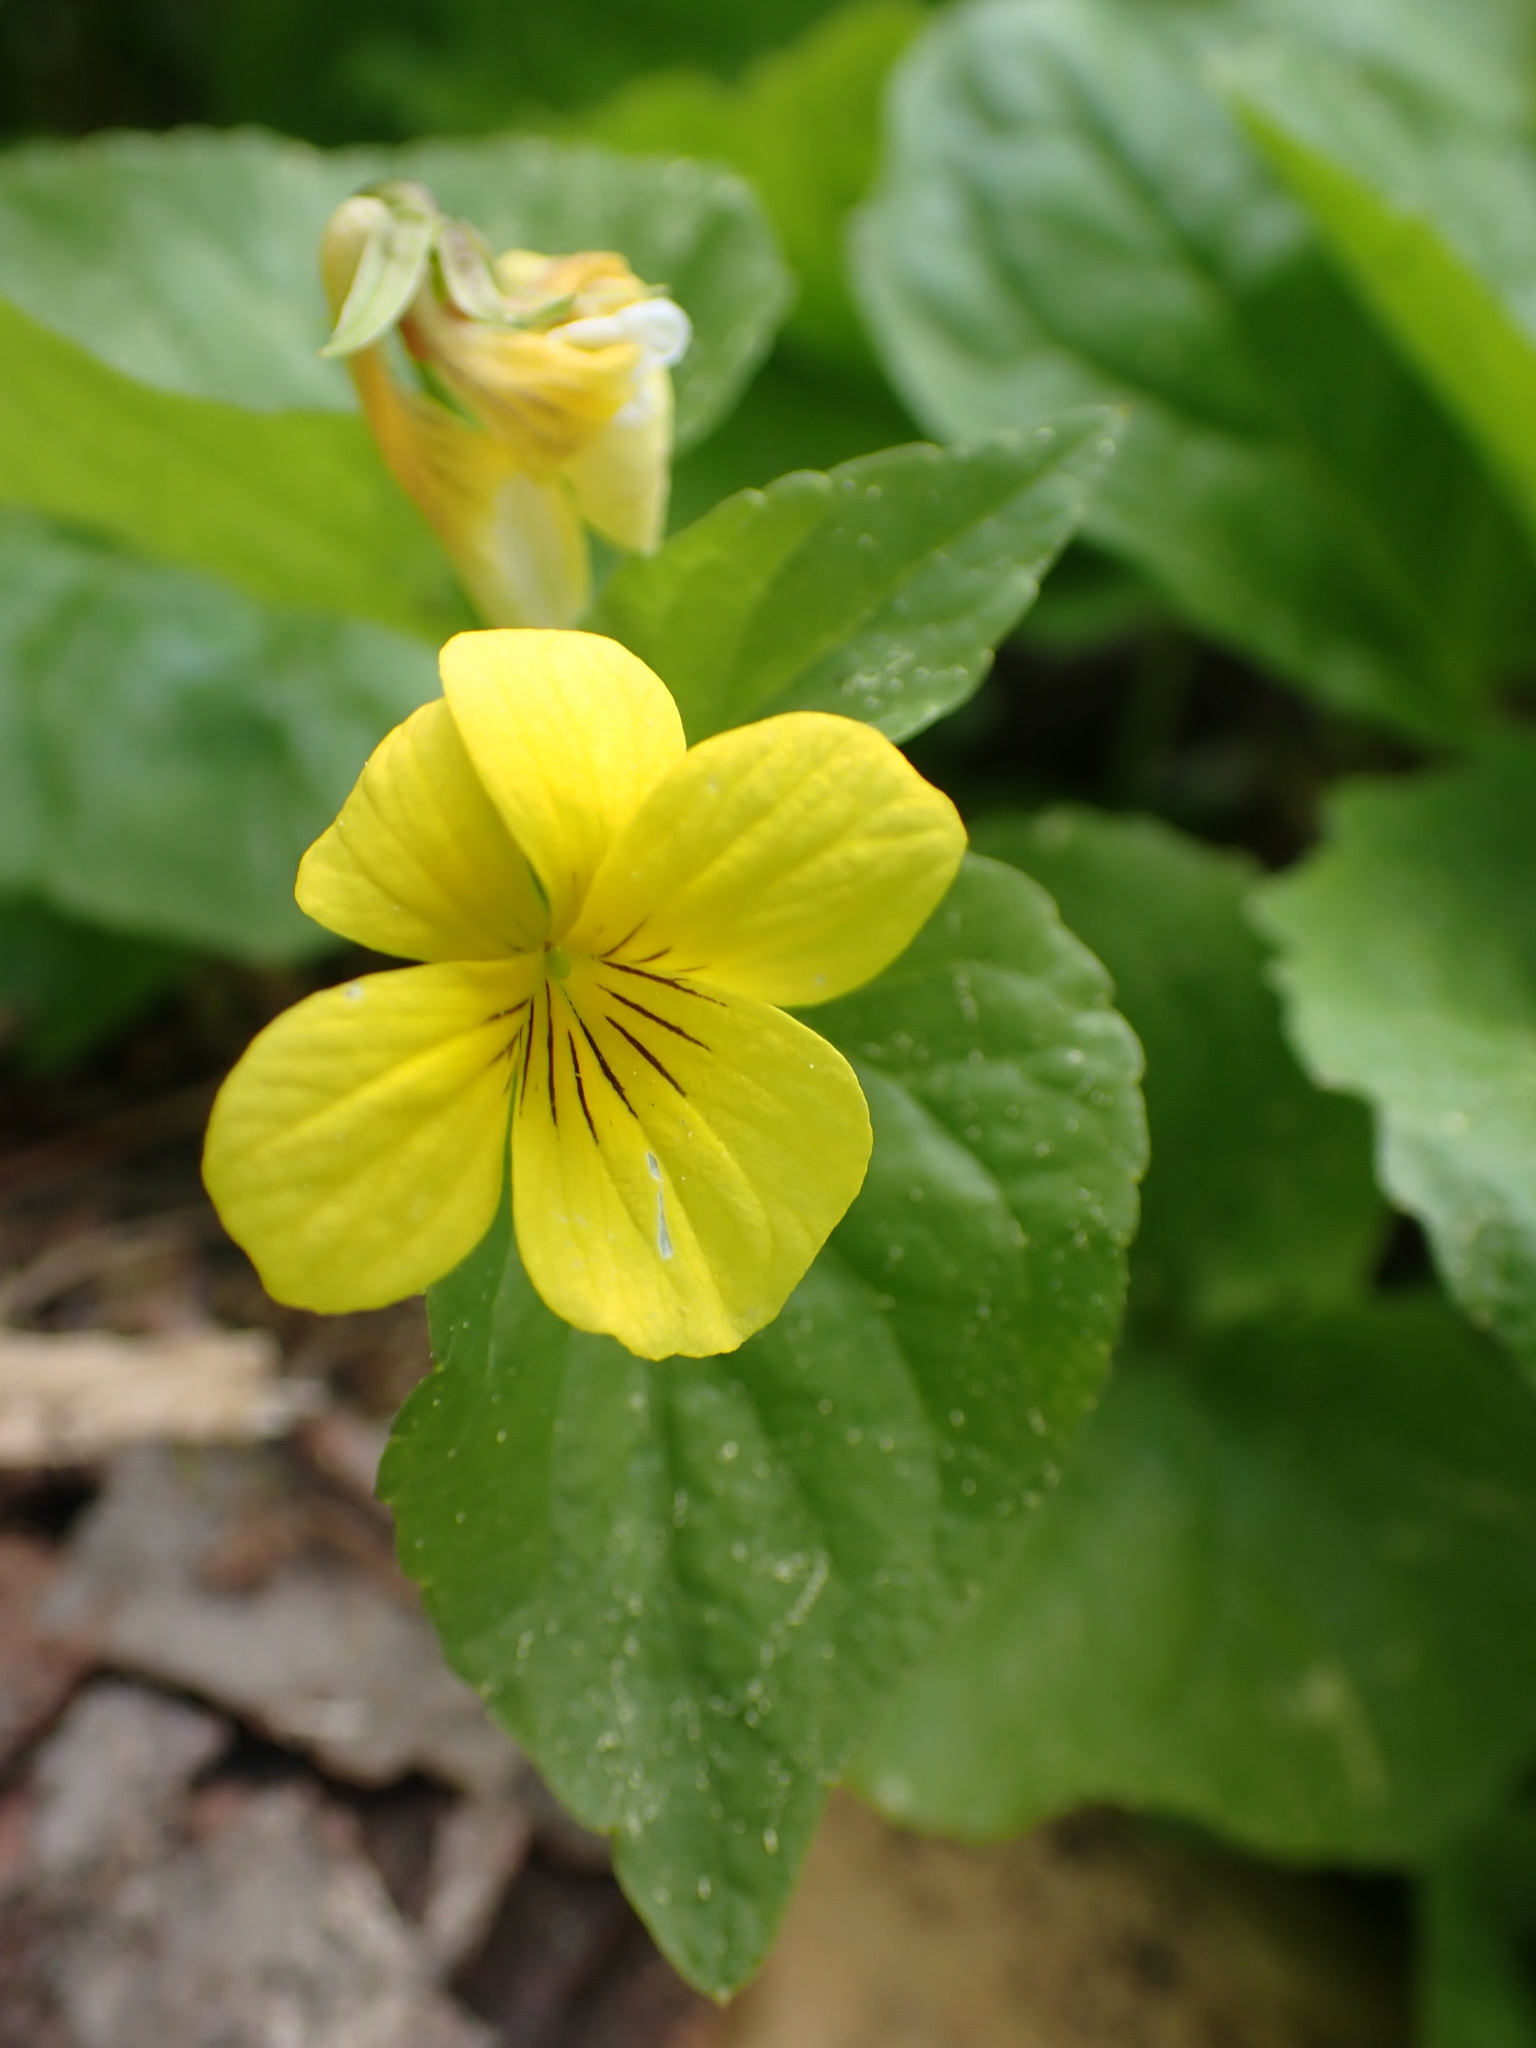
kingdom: Plantae
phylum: Tracheophyta
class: Magnoliopsida
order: Malpighiales
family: Violaceae
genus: Viola
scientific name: Viola glabella
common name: Stream violet
